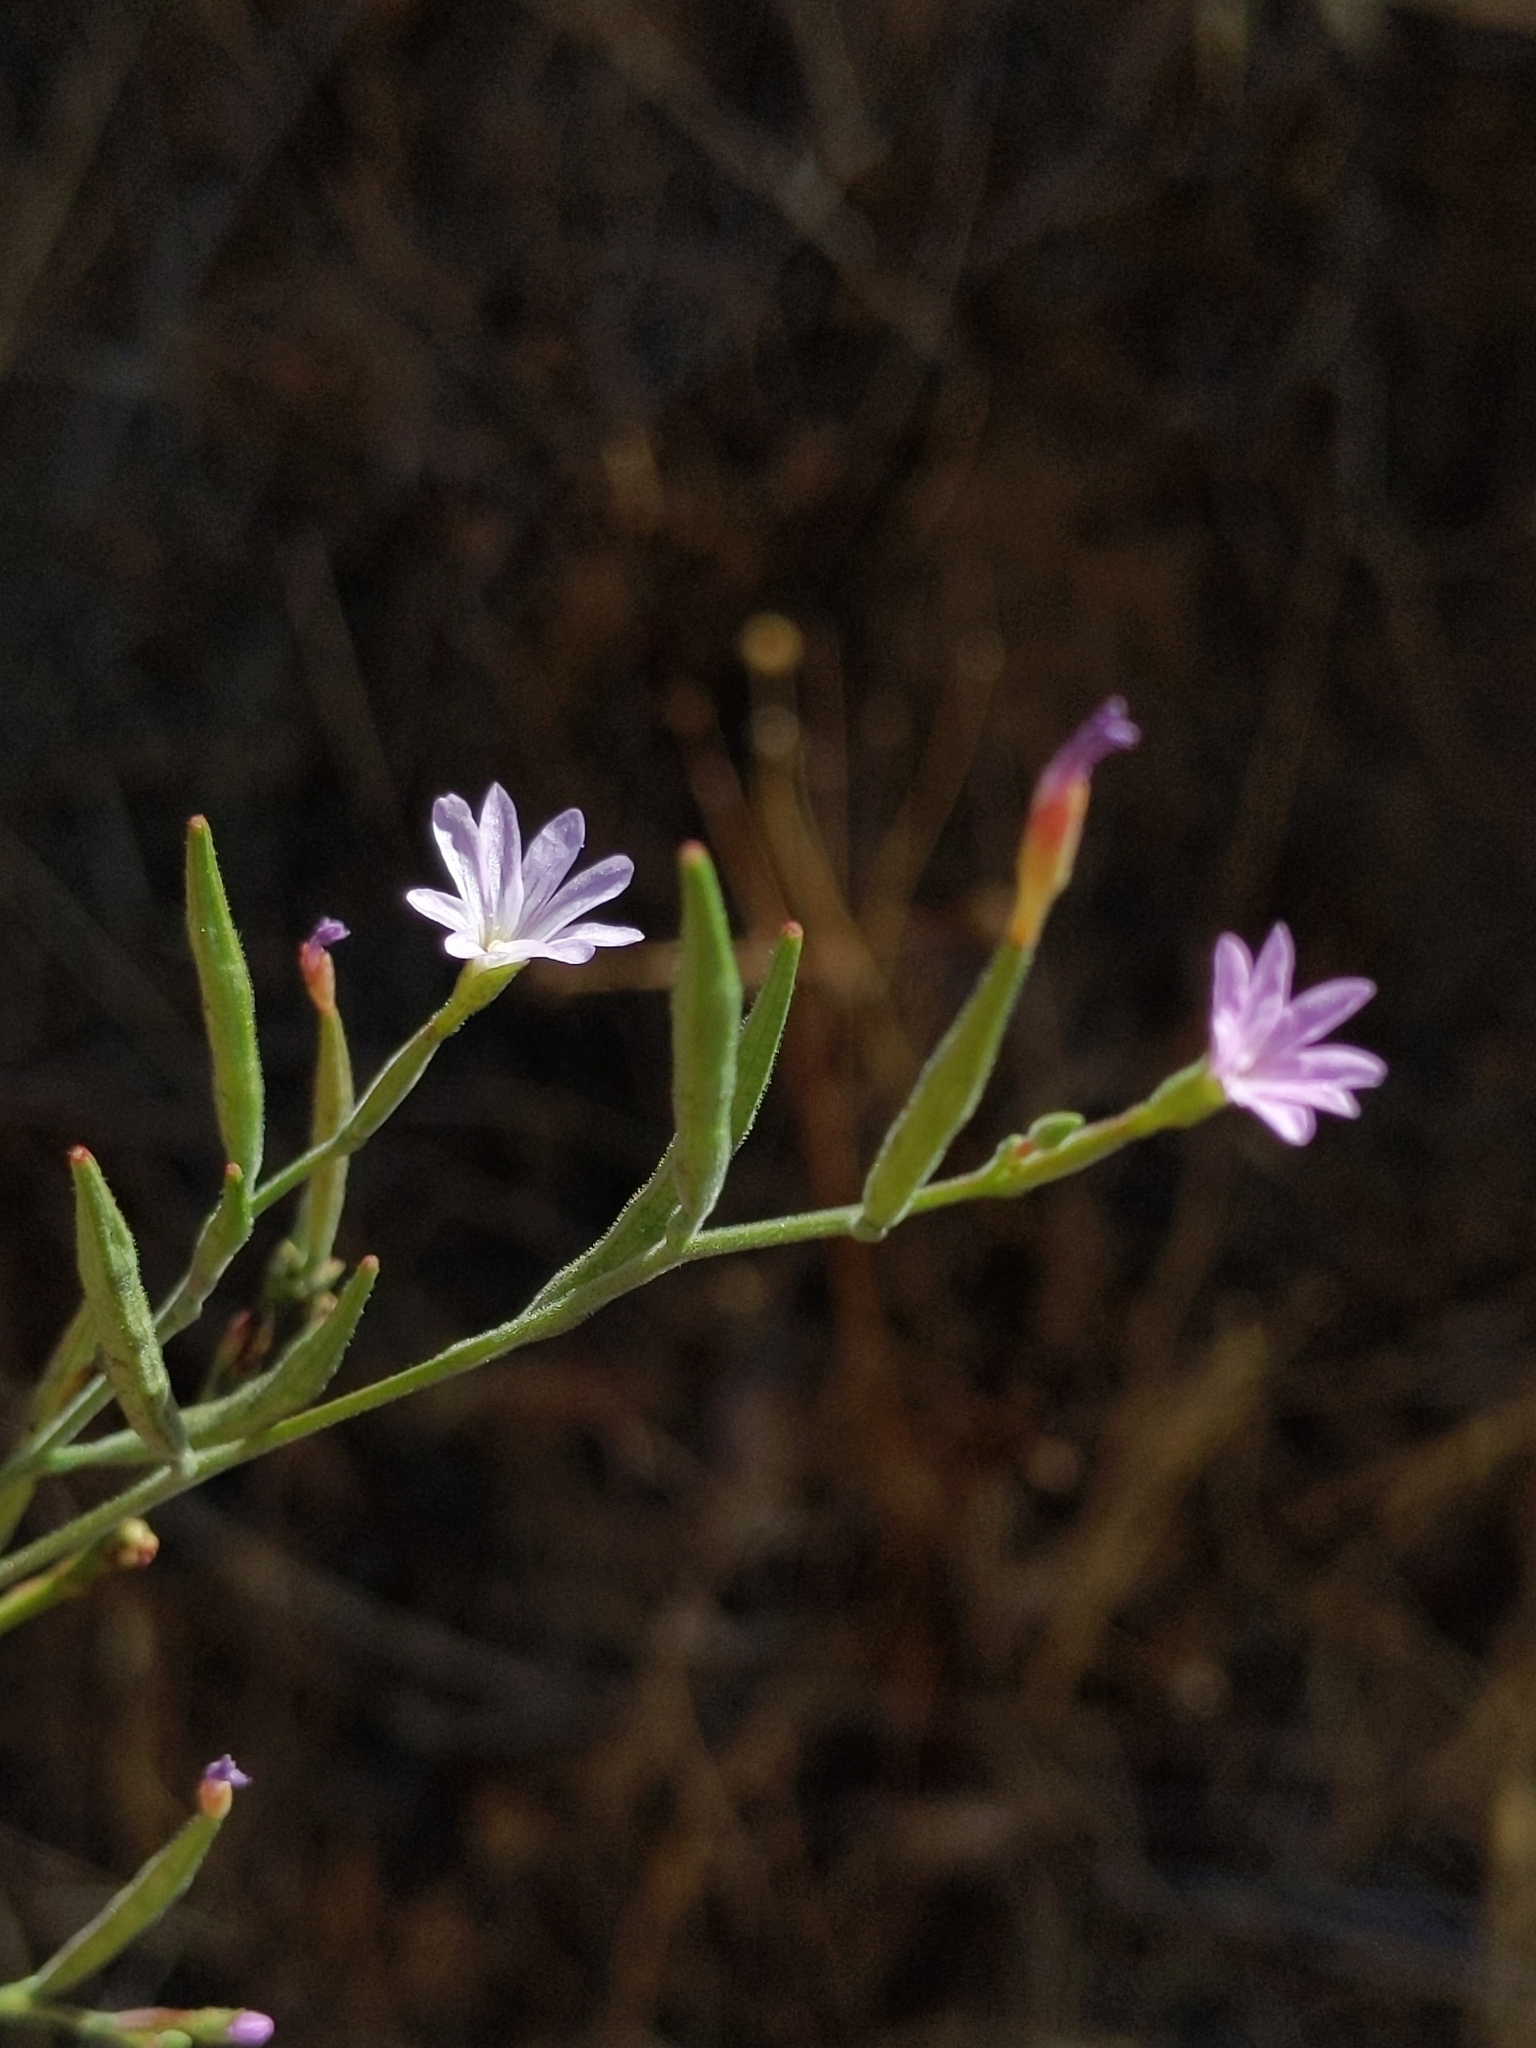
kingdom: Plantae
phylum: Tracheophyta
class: Magnoliopsida
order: Myrtales
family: Onagraceae
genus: Epilobium
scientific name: Epilobium brachycarpum
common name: Annual willowherb
